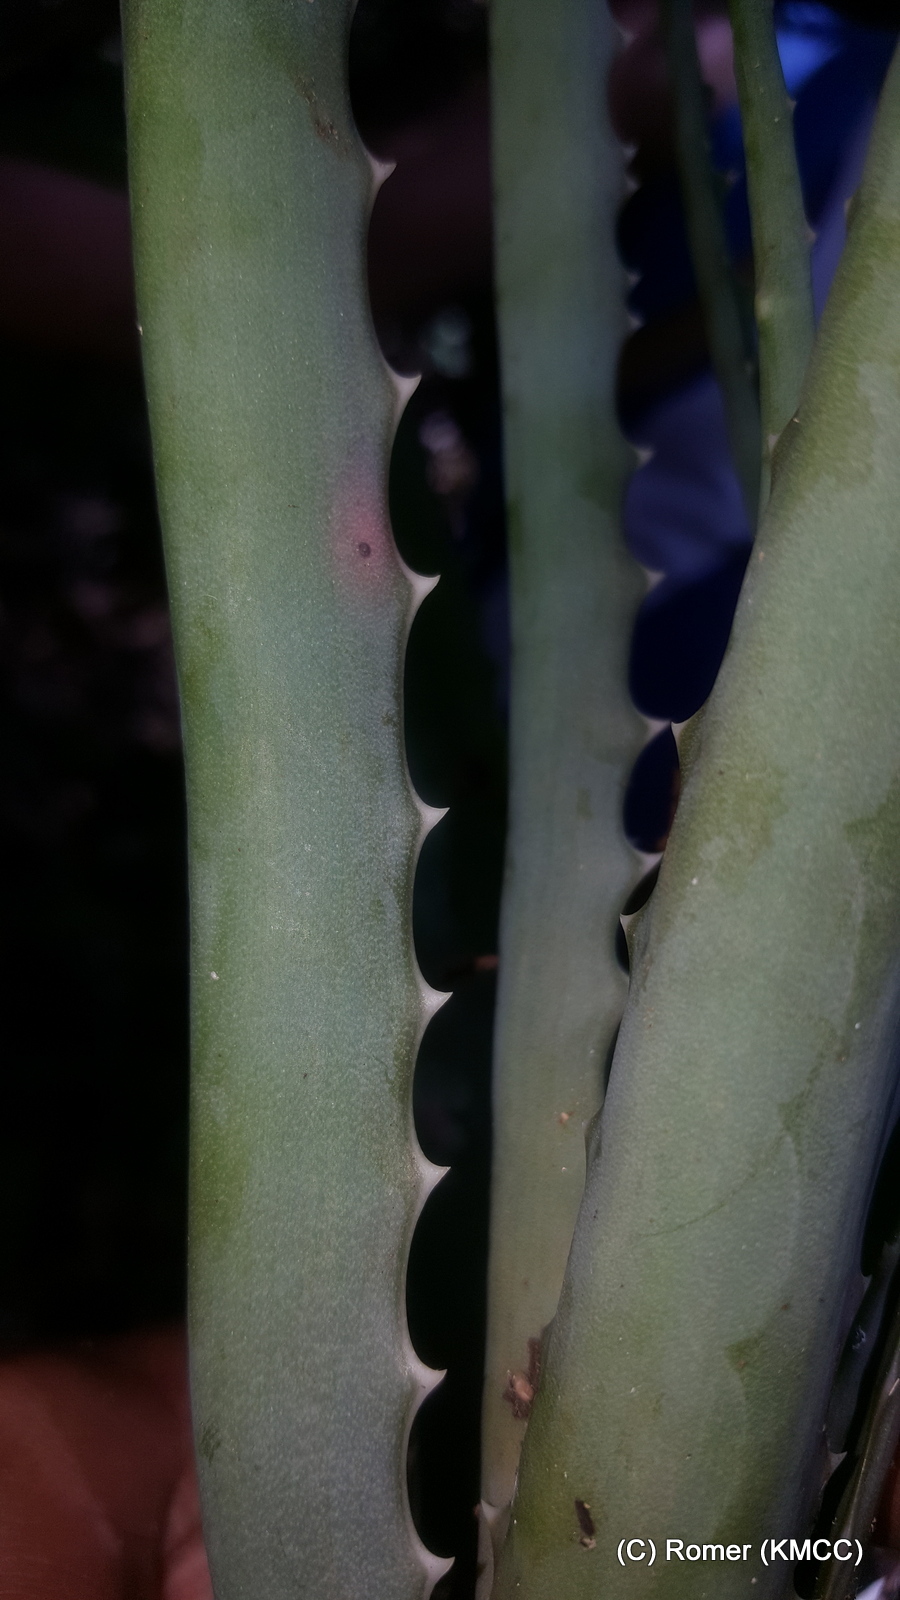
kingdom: Plantae
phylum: Tracheophyta
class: Liliopsida
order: Asparagales
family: Asphodelaceae
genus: Aloe
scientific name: Aloe aurelienii
